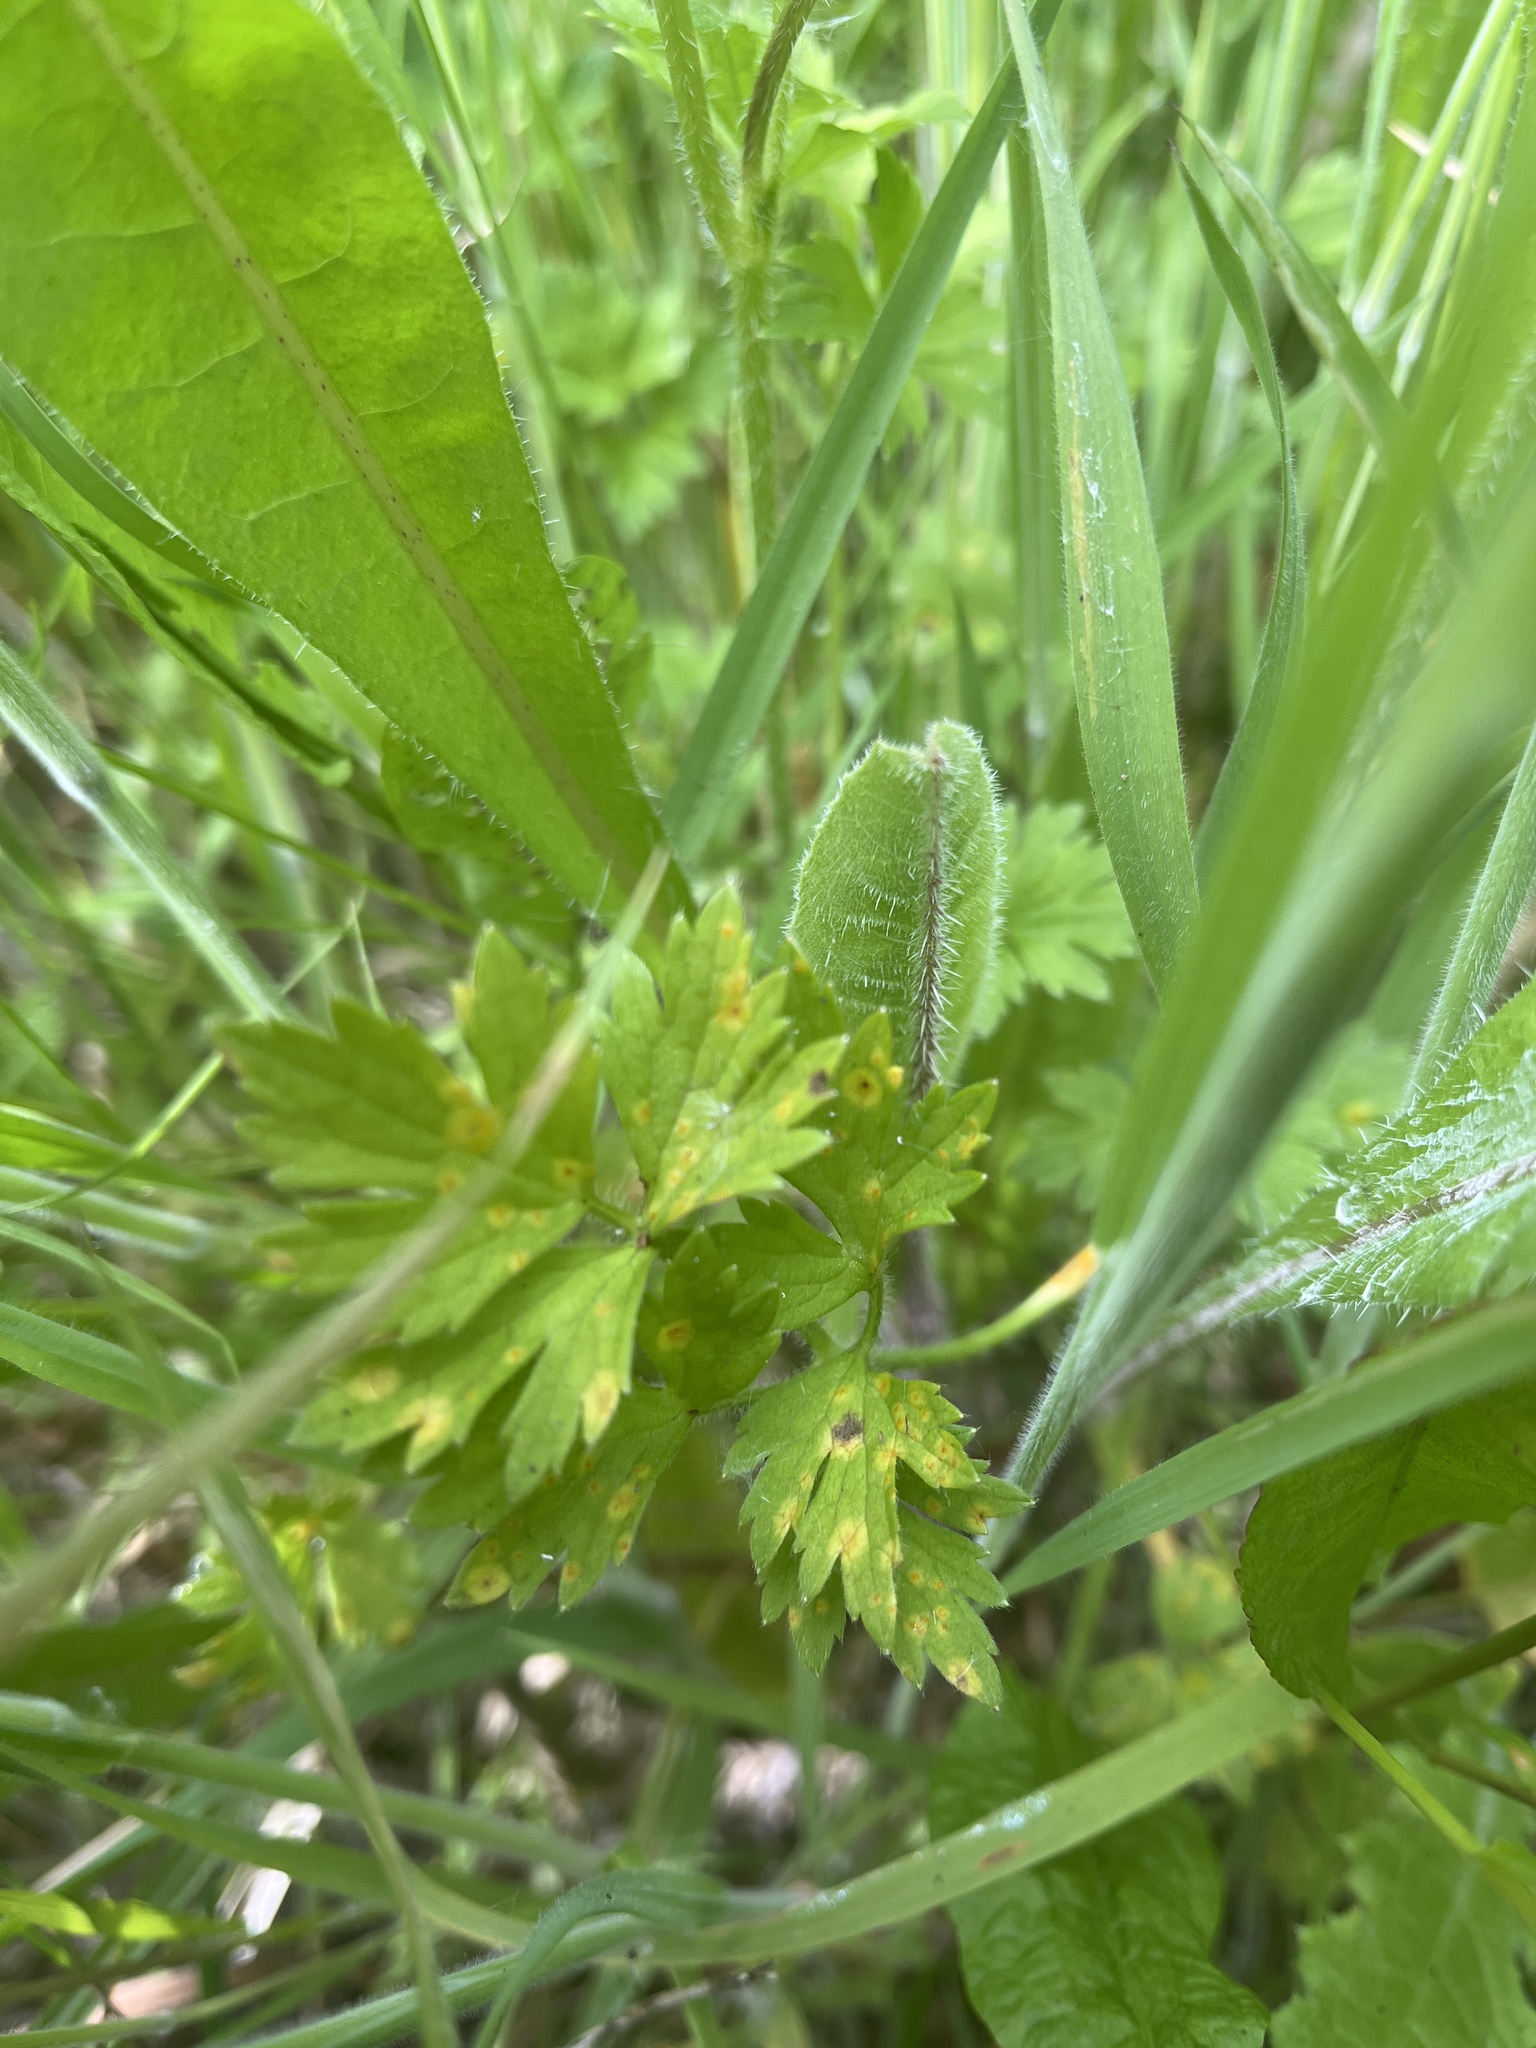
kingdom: Fungi
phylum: Basidiomycota
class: Pucciniomycetes
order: Pucciniales
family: Pucciniaceae
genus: Aecidium
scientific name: Aecidium ranunculi-acris
